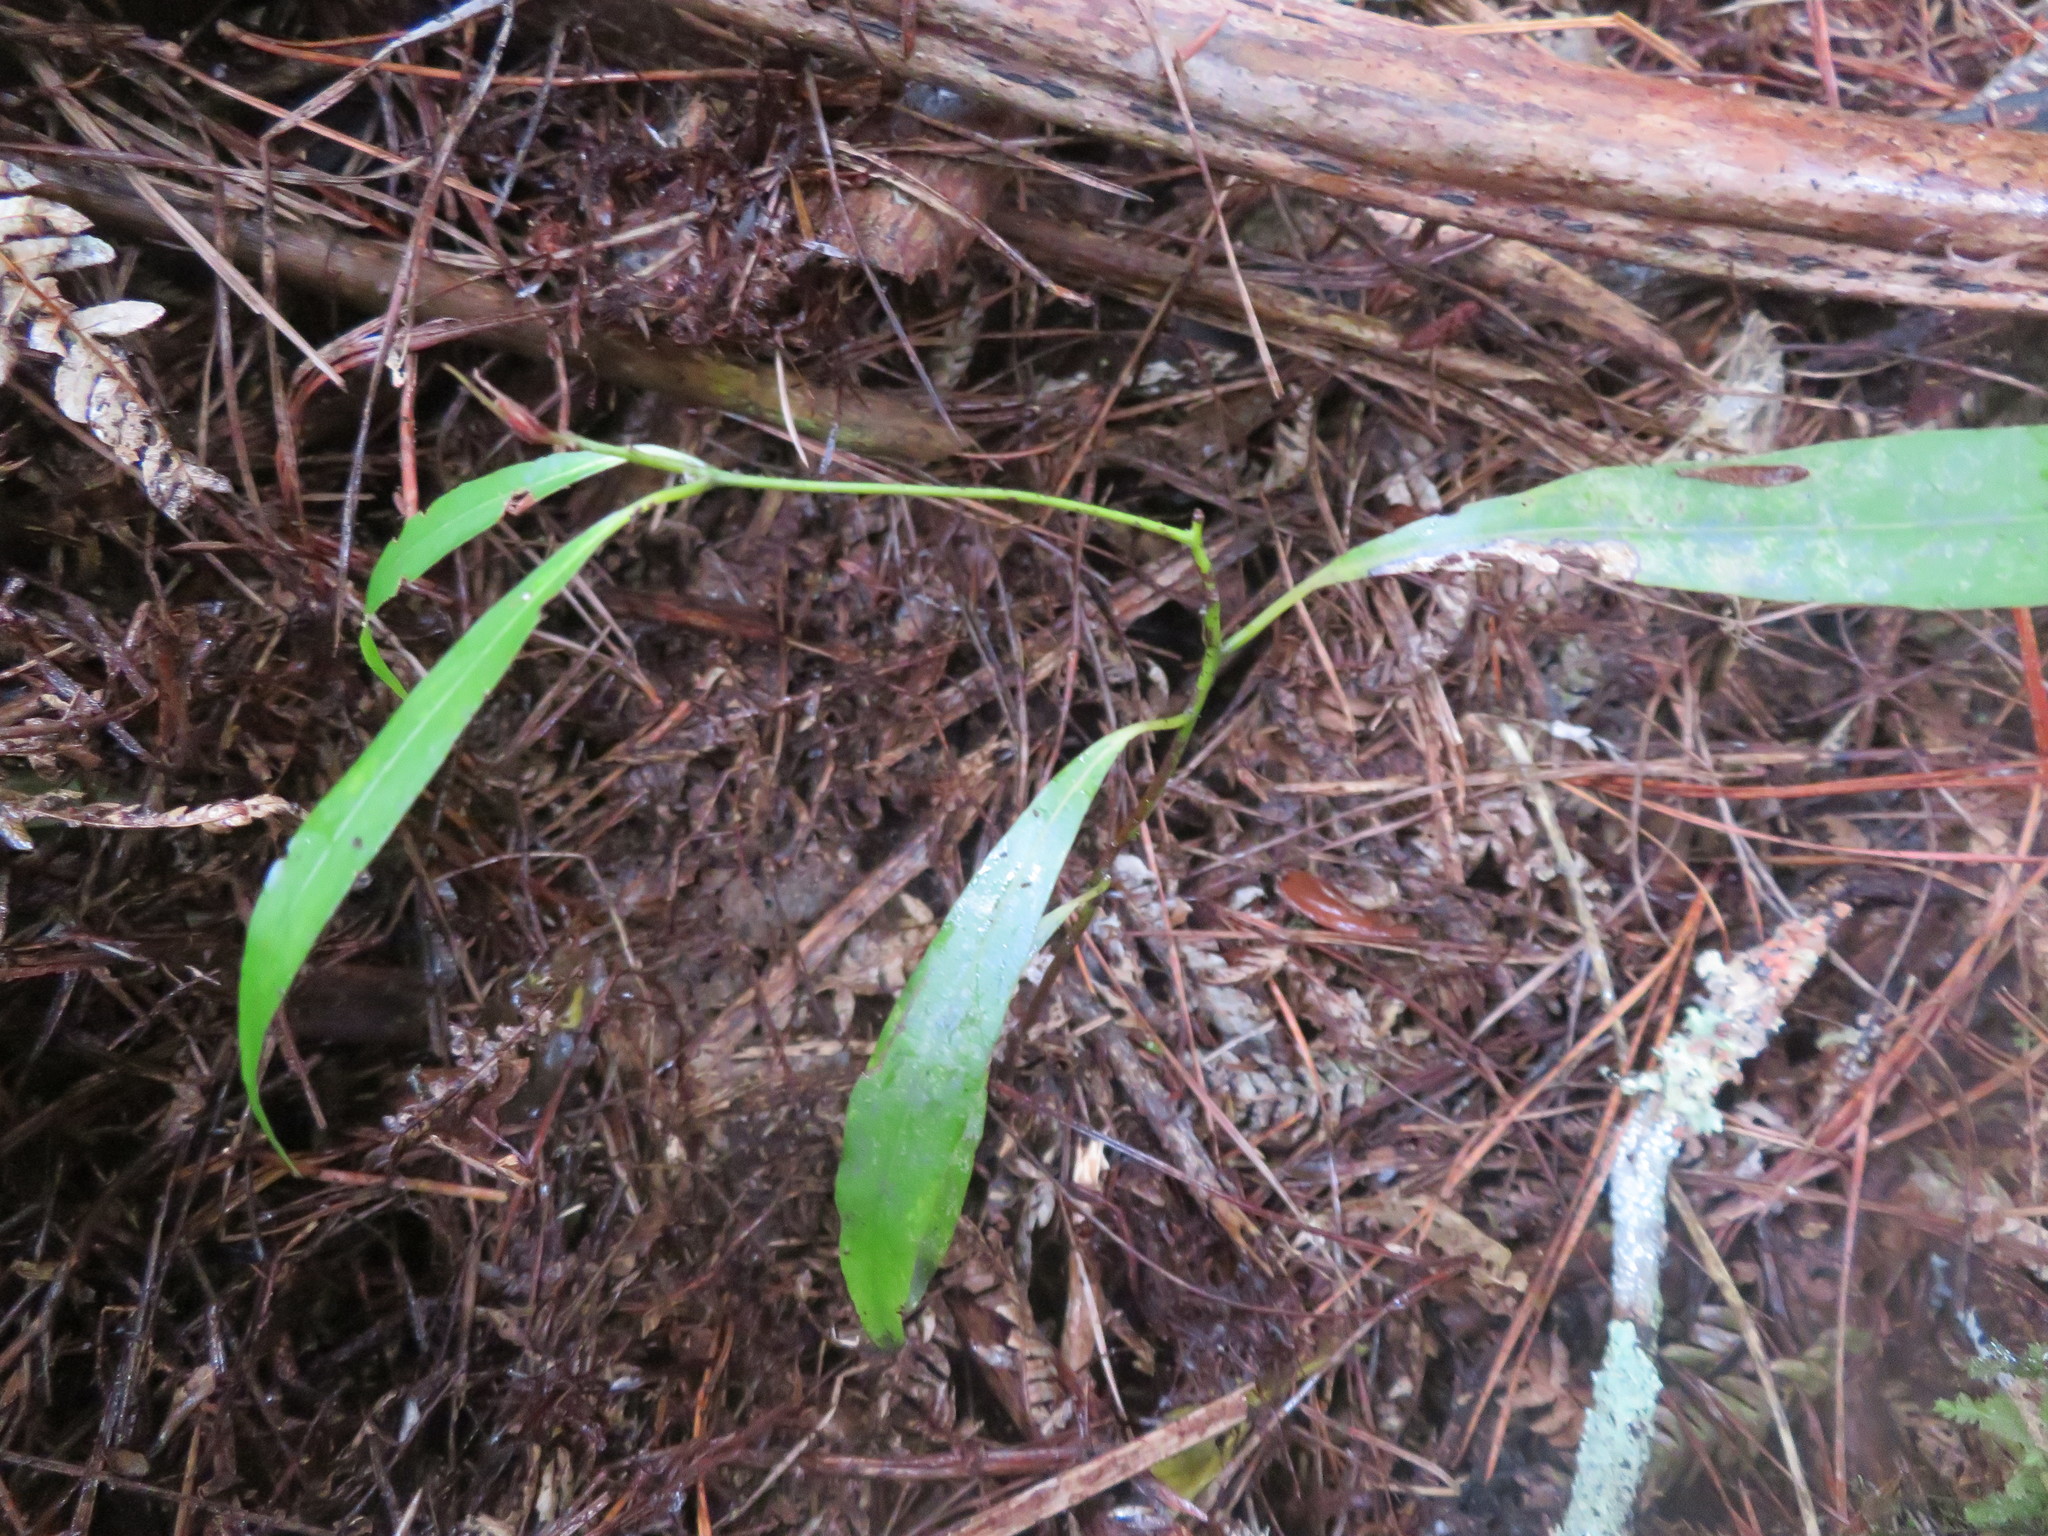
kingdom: Plantae
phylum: Tracheophyta
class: Magnoliopsida
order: Laurales
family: Lauraceae
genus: Beilschmiedia
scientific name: Beilschmiedia tawa
